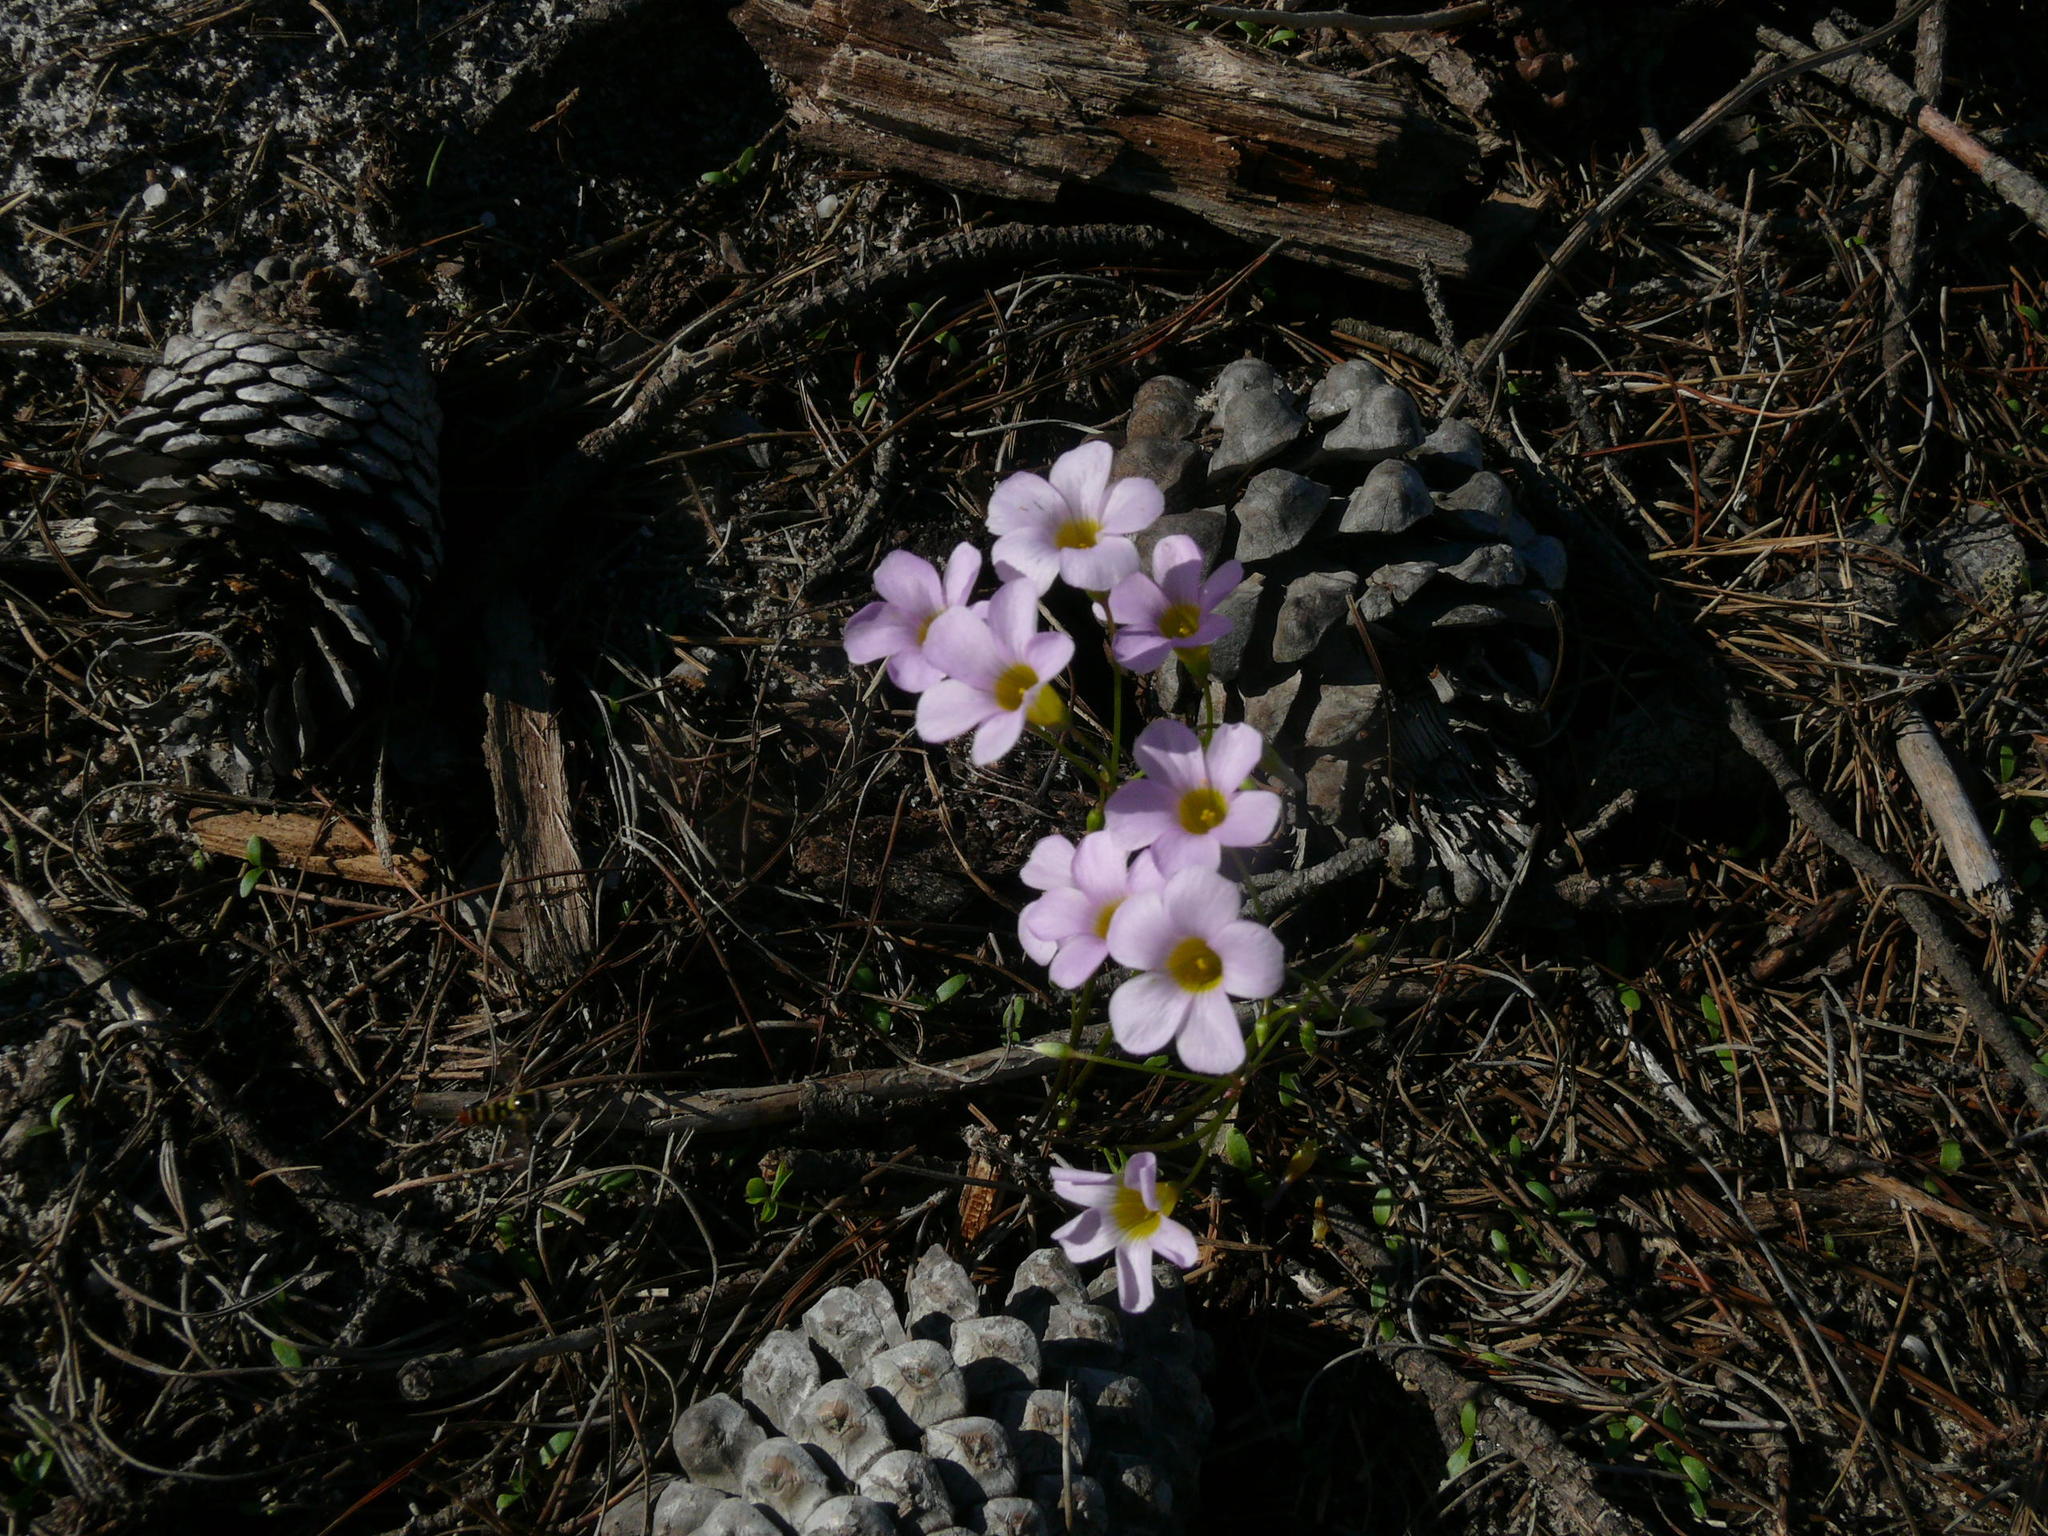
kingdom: Plantae
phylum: Tracheophyta
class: Magnoliopsida
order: Oxalidales
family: Oxalidaceae
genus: Oxalis
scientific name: Oxalis caprina
